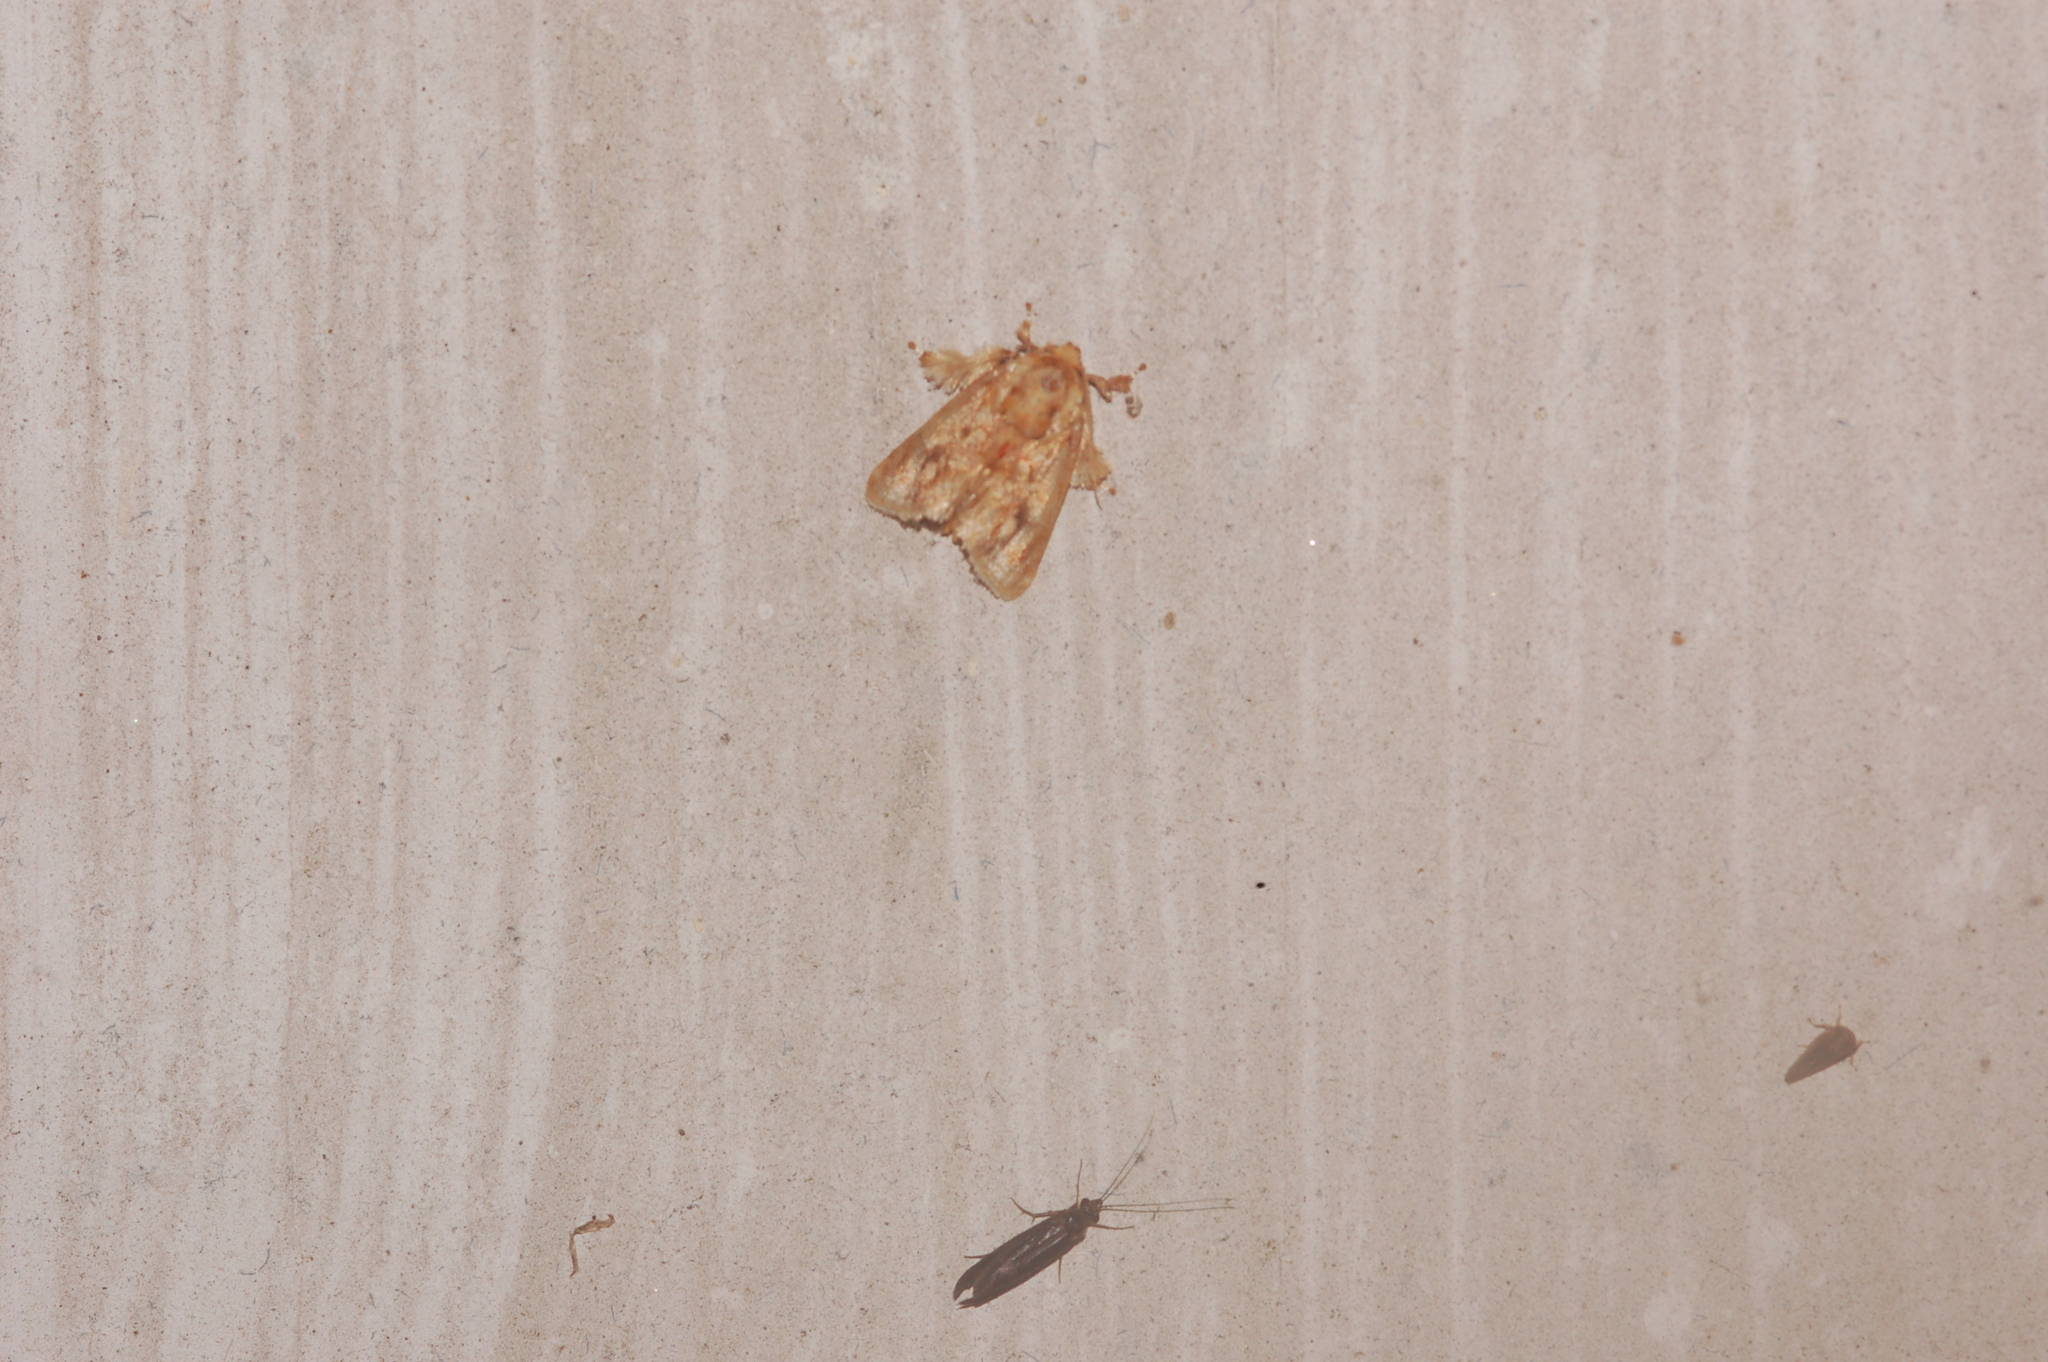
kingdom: Animalia
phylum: Arthropoda
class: Insecta
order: Lepidoptera
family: Limacodidae
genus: Isochaetes
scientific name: Isochaetes beutenmuelleri
